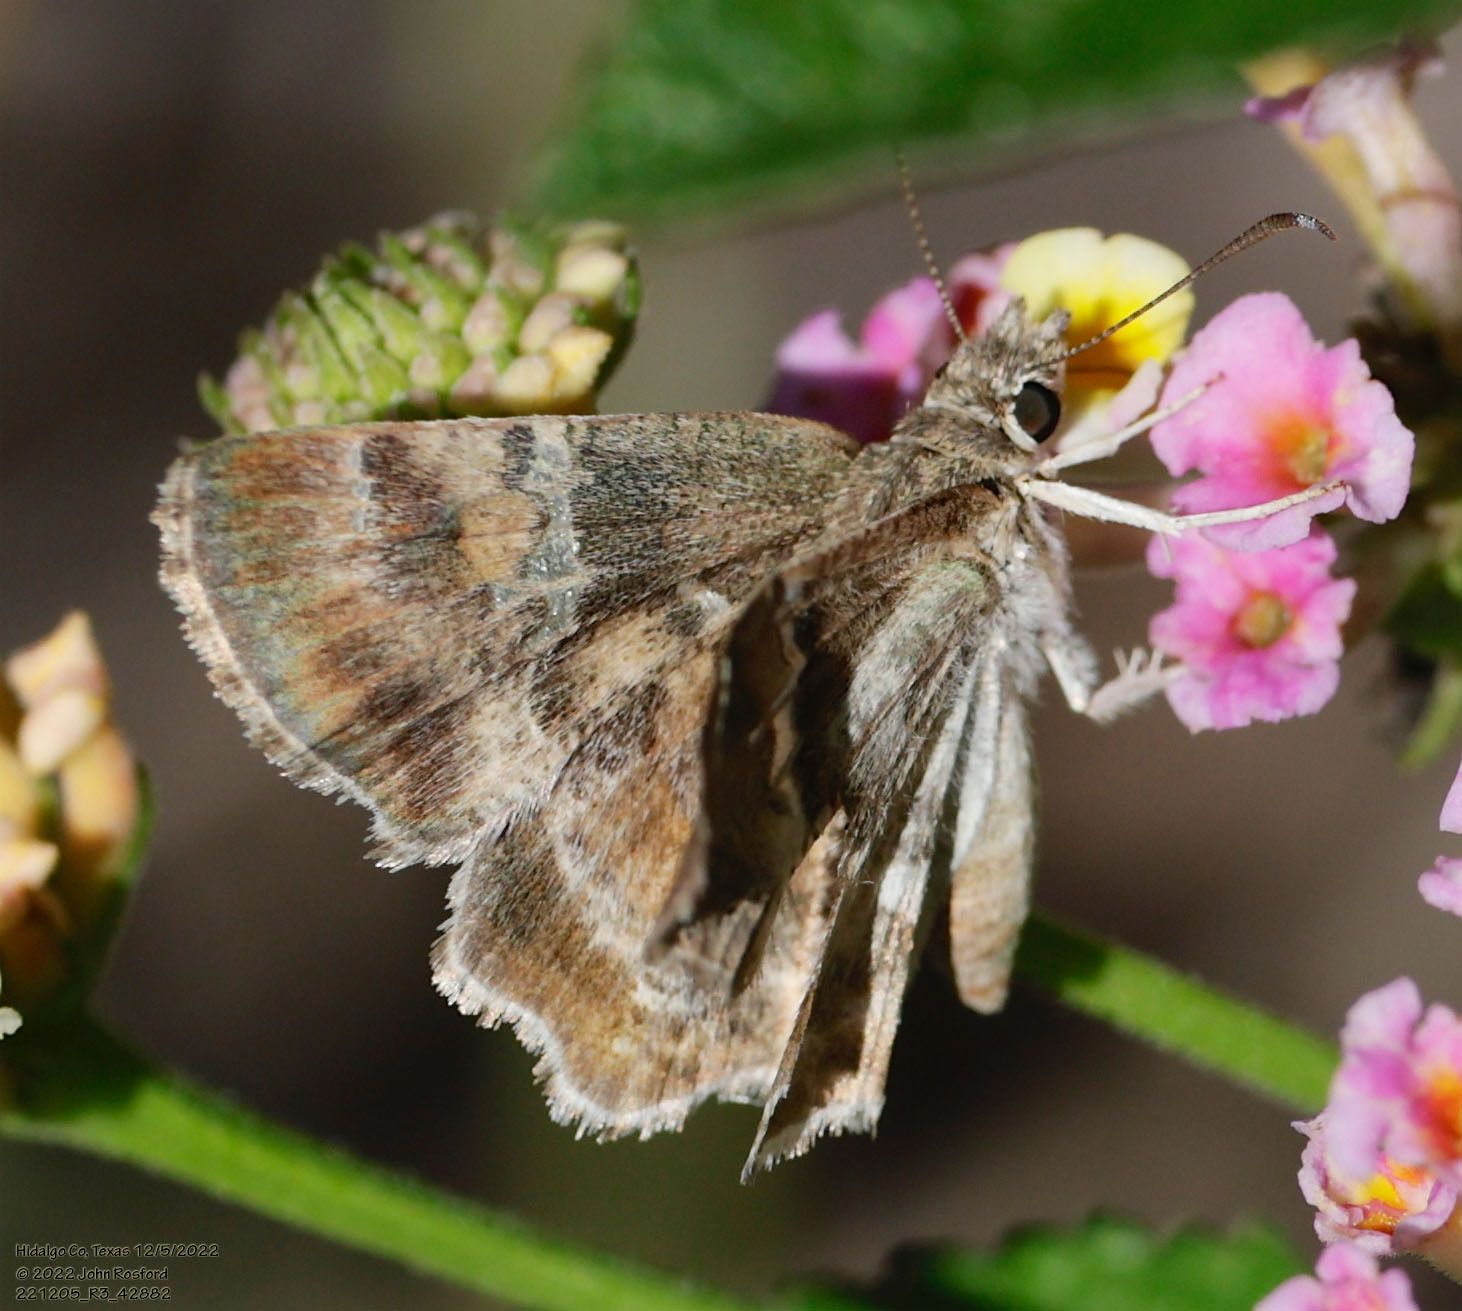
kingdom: Animalia
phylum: Arthropoda
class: Insecta
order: Lepidoptera
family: Hesperiidae
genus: Systasea
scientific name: Systasea pulverulenta
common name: Texas powdered skipper
